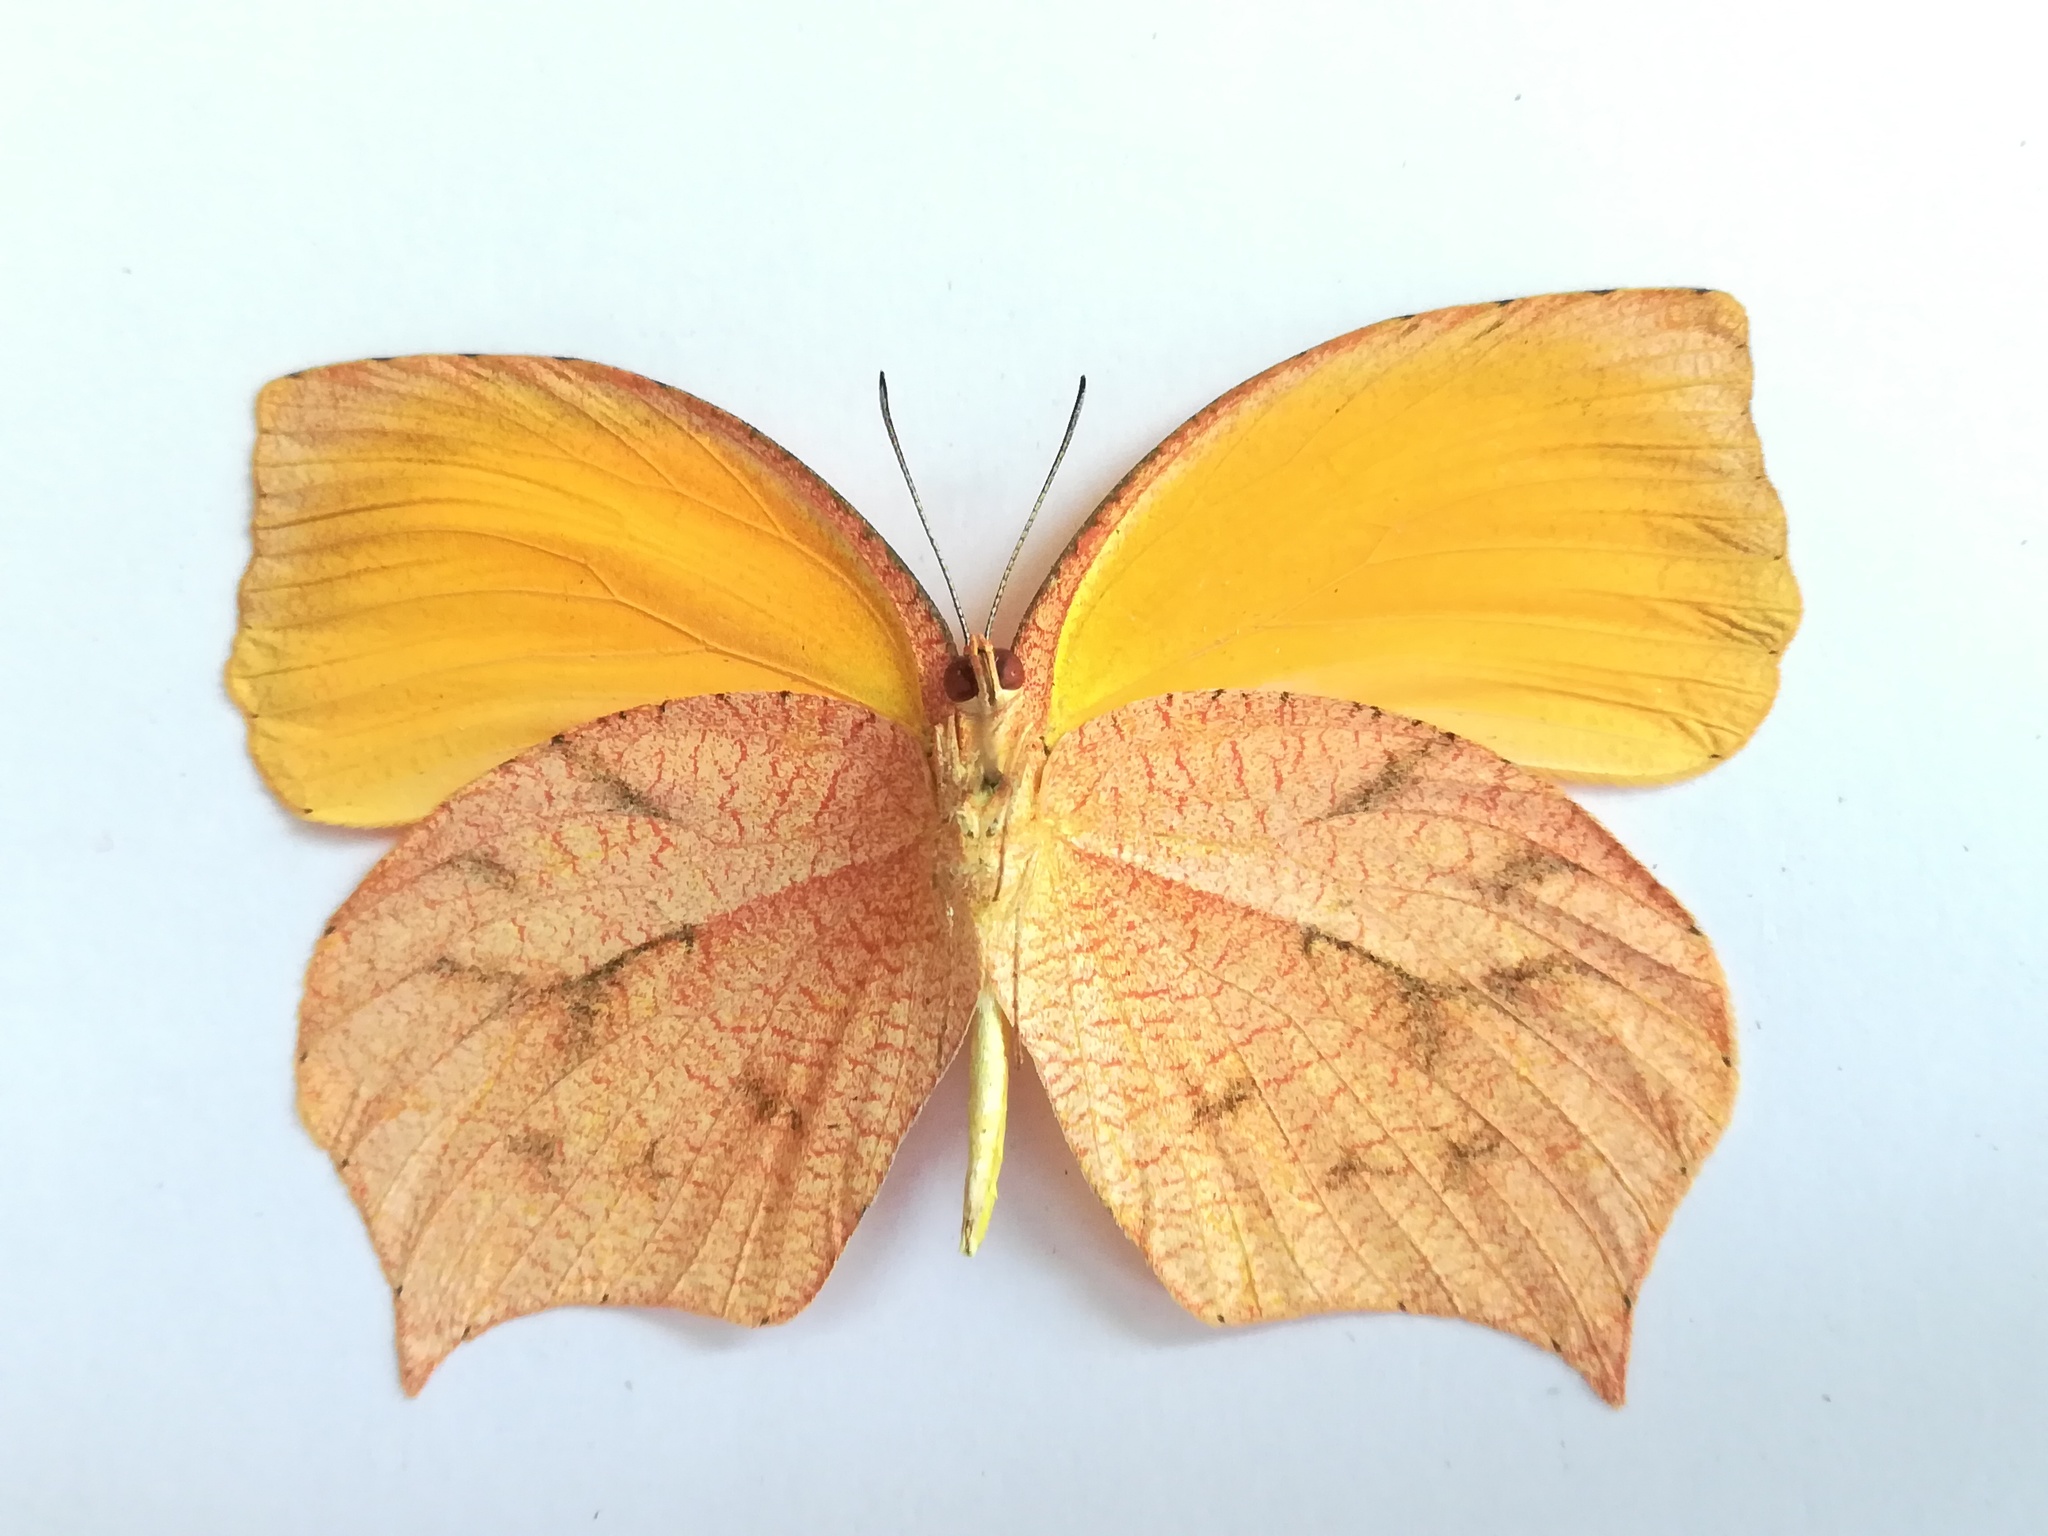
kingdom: Animalia
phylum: Arthropoda
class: Insecta
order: Lepidoptera
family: Pieridae
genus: Pyrisitia
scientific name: Pyrisitia proterpia
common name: Tailed orange
